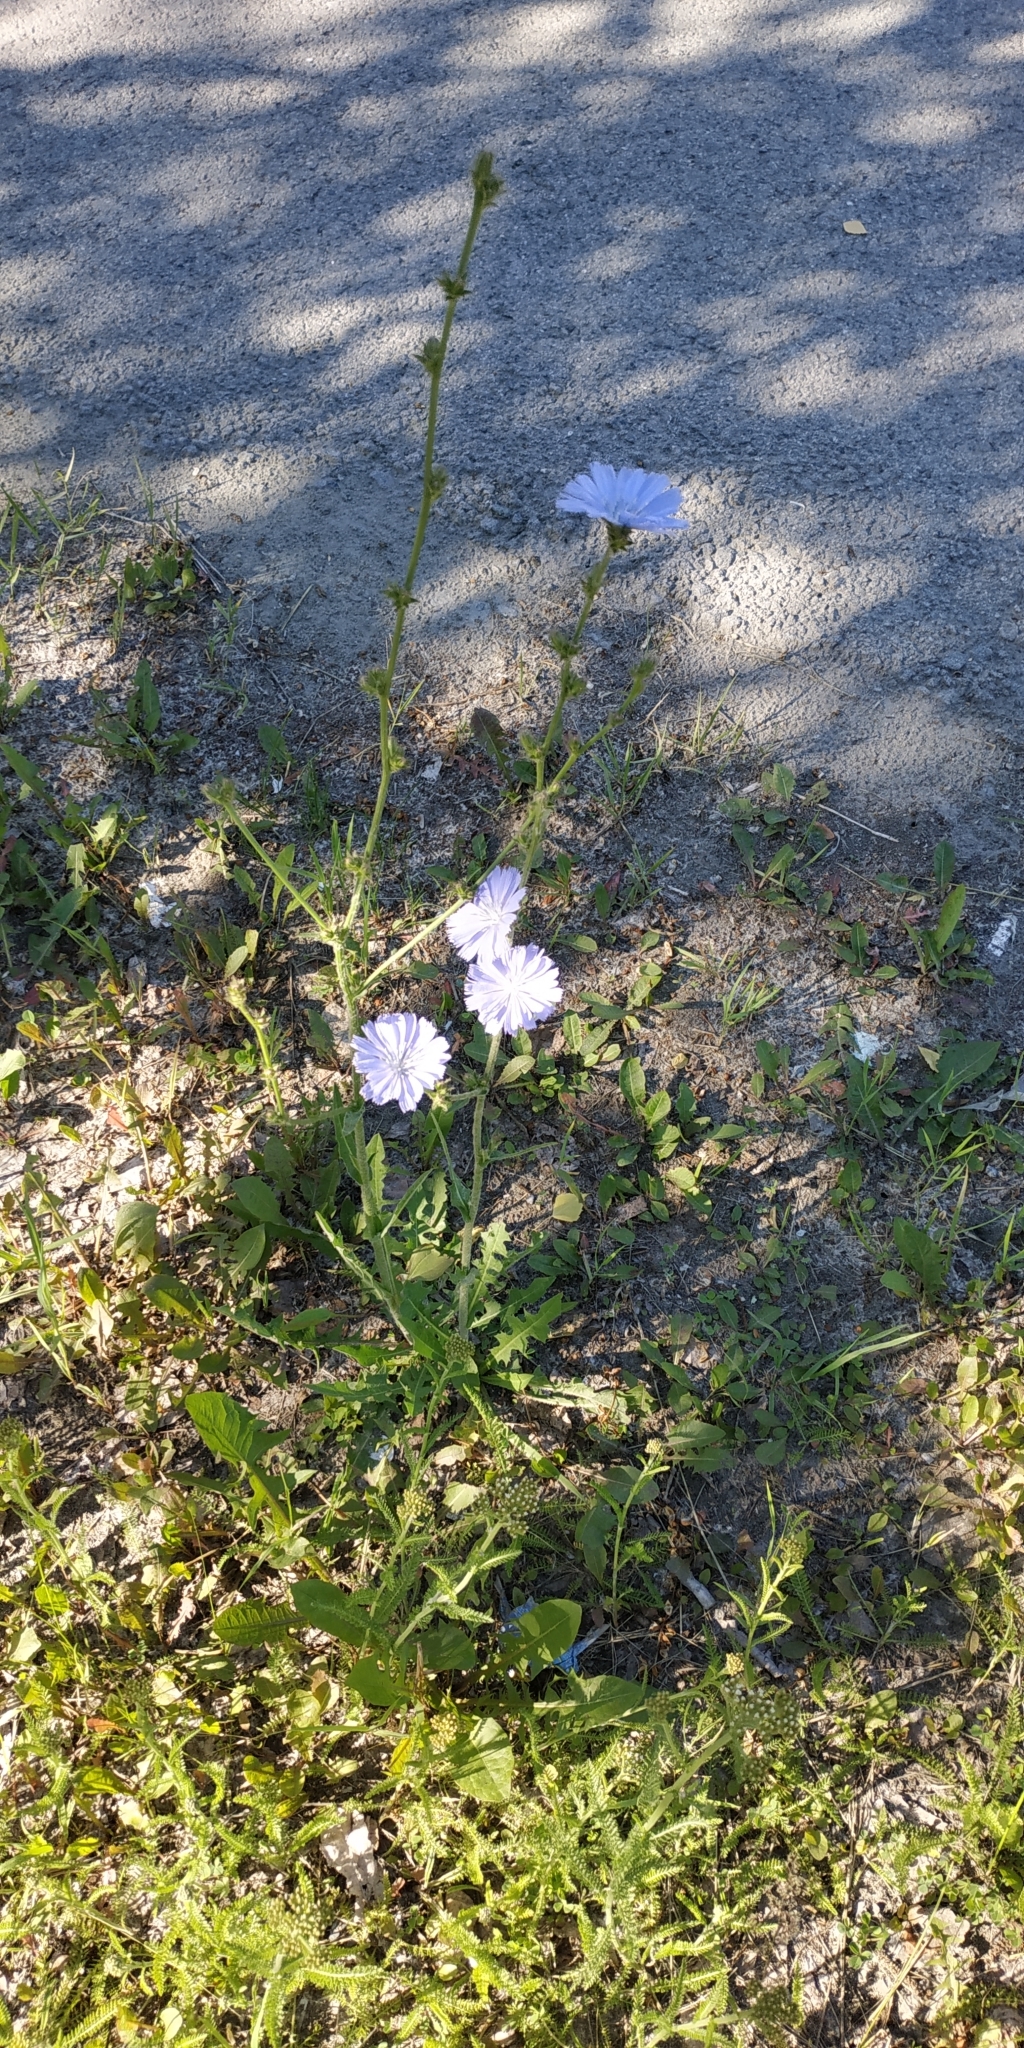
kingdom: Plantae
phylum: Tracheophyta
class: Magnoliopsida
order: Asterales
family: Asteraceae
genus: Cichorium
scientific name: Cichorium intybus
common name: Chicory
